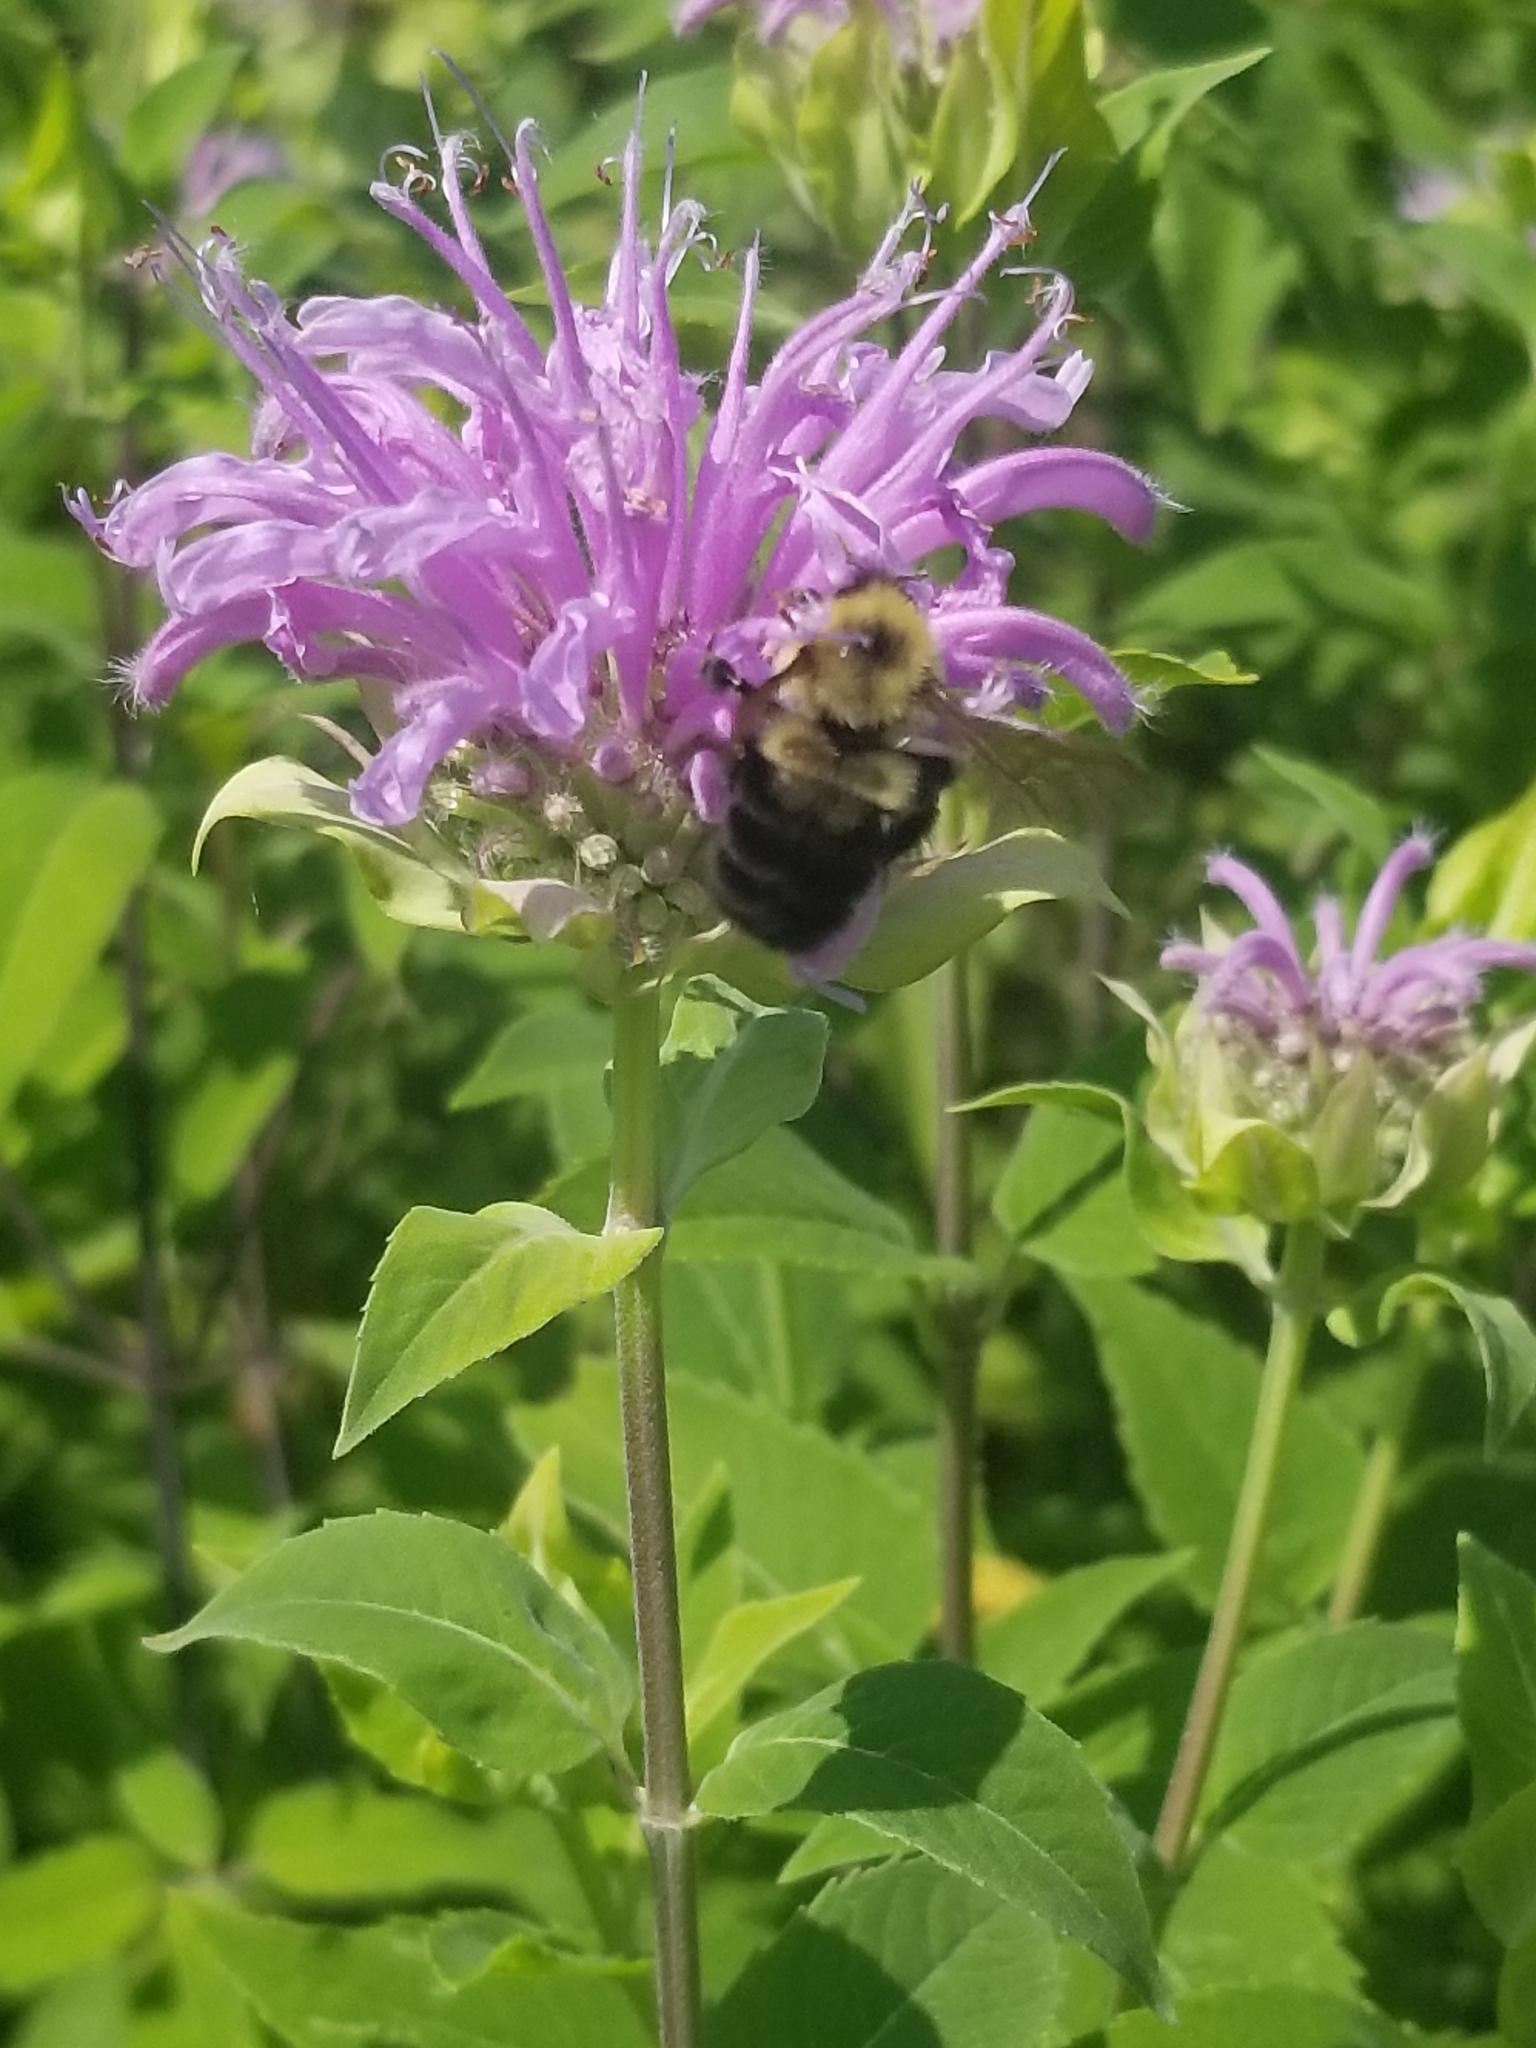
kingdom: Animalia
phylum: Arthropoda
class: Insecta
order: Hymenoptera
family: Apidae
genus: Bombus
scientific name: Bombus bimaculatus
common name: Two-spotted bumble bee
